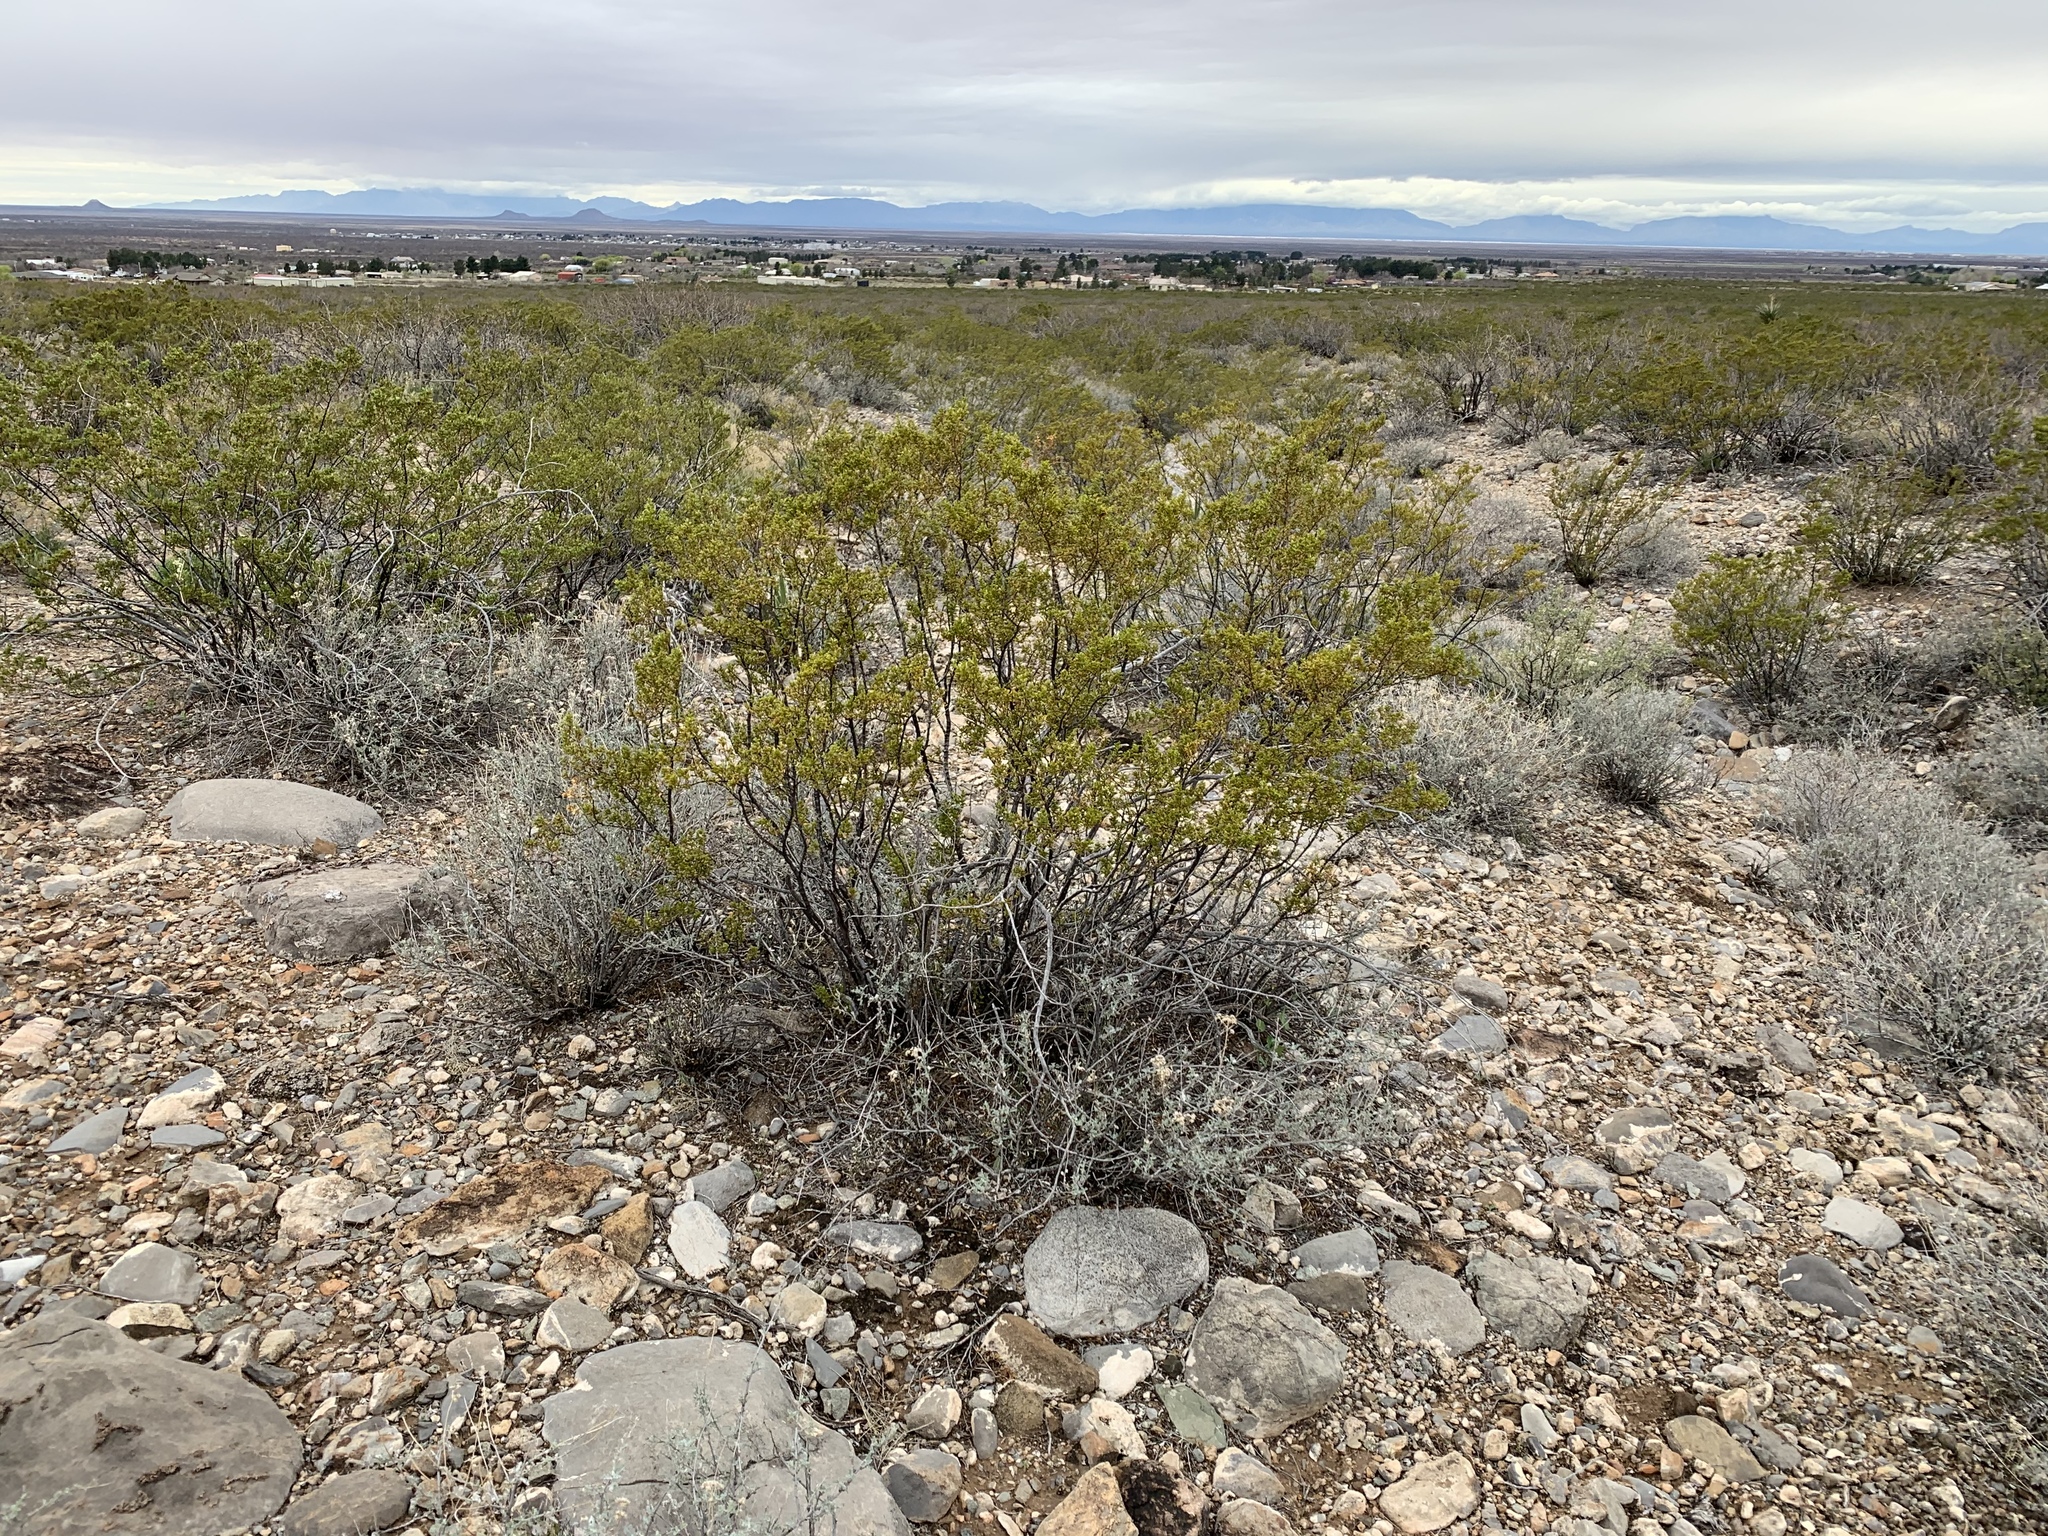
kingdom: Plantae
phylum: Tracheophyta
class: Magnoliopsida
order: Zygophyllales
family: Zygophyllaceae
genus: Larrea
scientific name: Larrea tridentata
